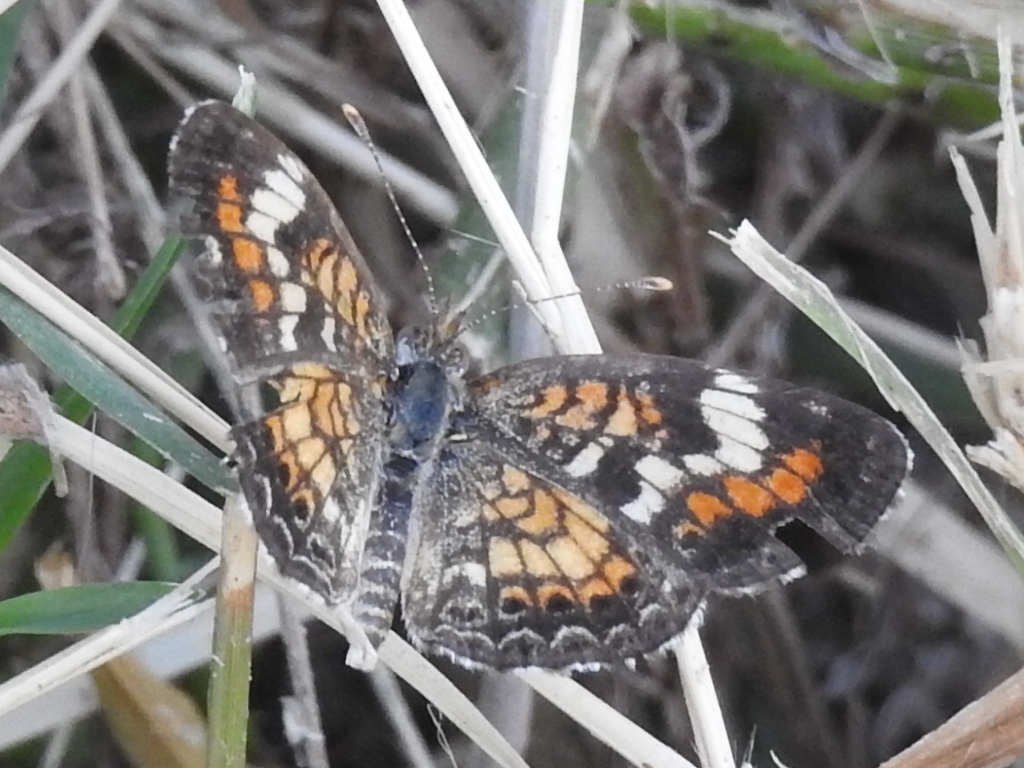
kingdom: Animalia
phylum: Arthropoda
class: Insecta
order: Lepidoptera
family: Nymphalidae
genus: Phyciodes
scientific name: Phyciodes phaon
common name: Phaon crescent
